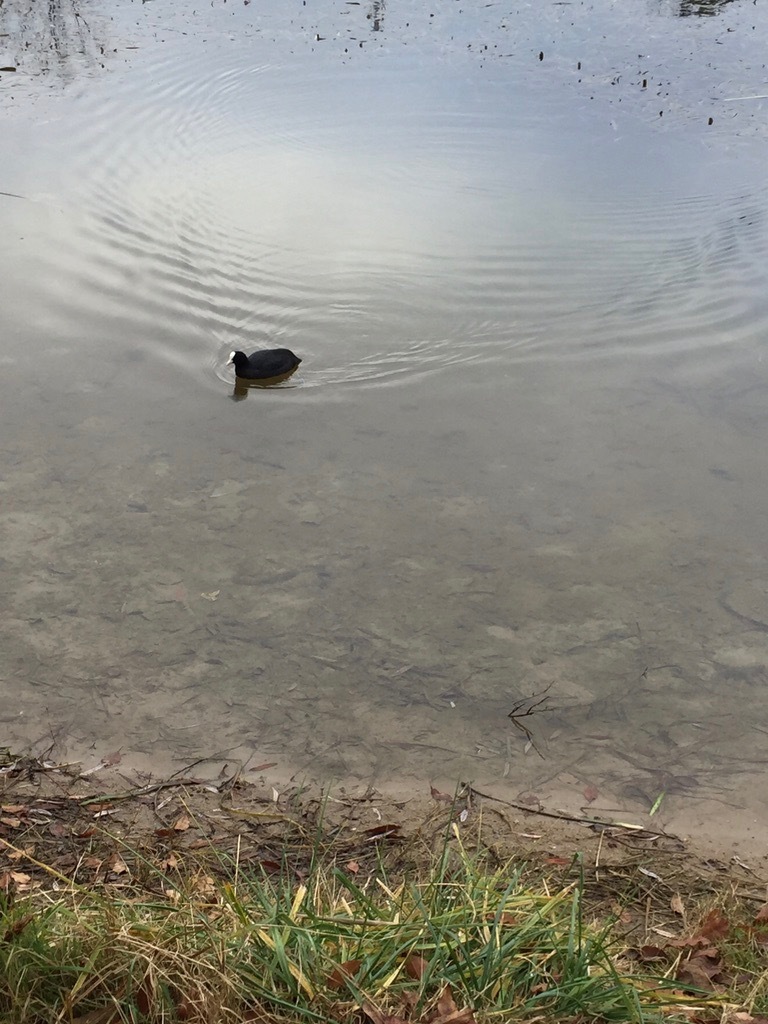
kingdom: Animalia
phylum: Chordata
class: Aves
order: Gruiformes
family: Rallidae
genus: Fulica
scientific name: Fulica atra
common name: Eurasian coot
